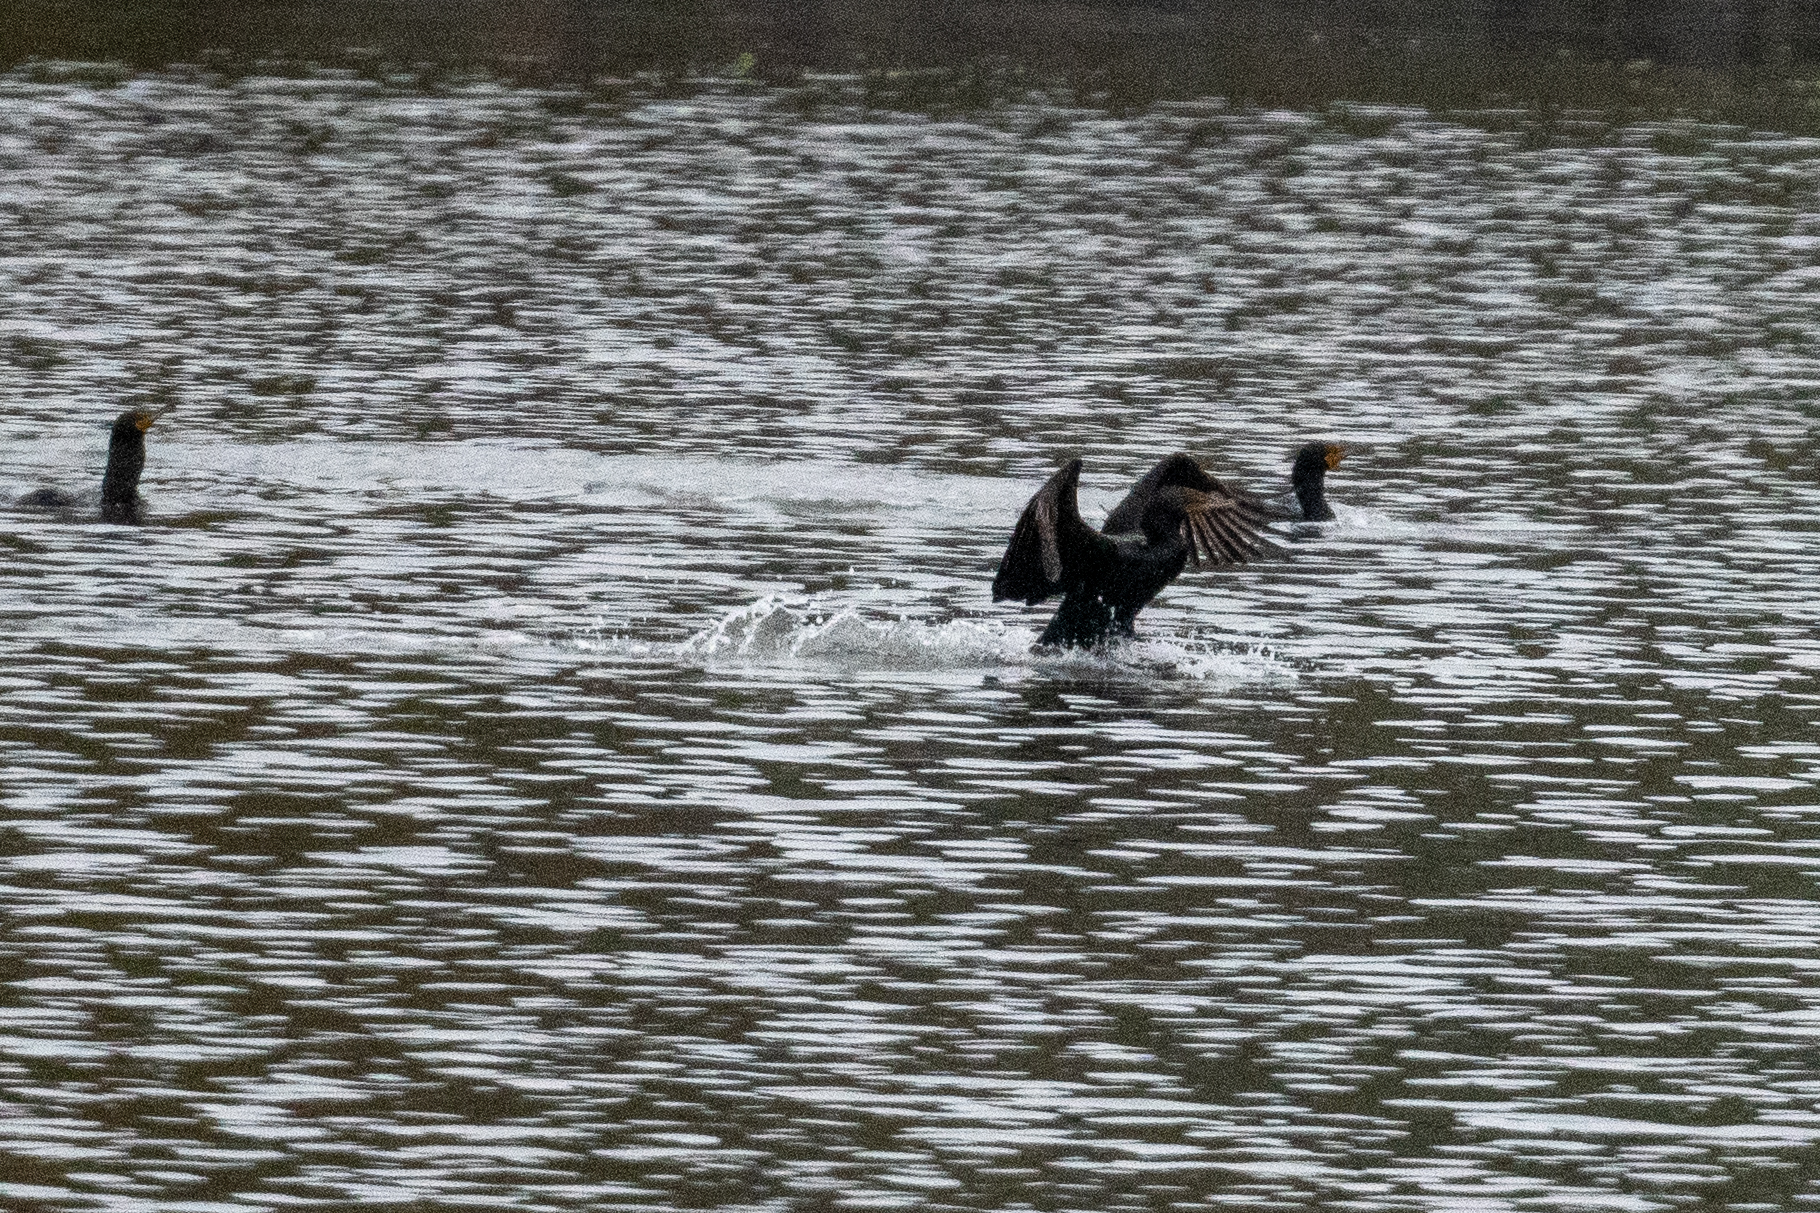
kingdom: Animalia
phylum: Chordata
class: Aves
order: Suliformes
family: Phalacrocoracidae
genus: Phalacrocorax
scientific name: Phalacrocorax auritus
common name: Double-crested cormorant
